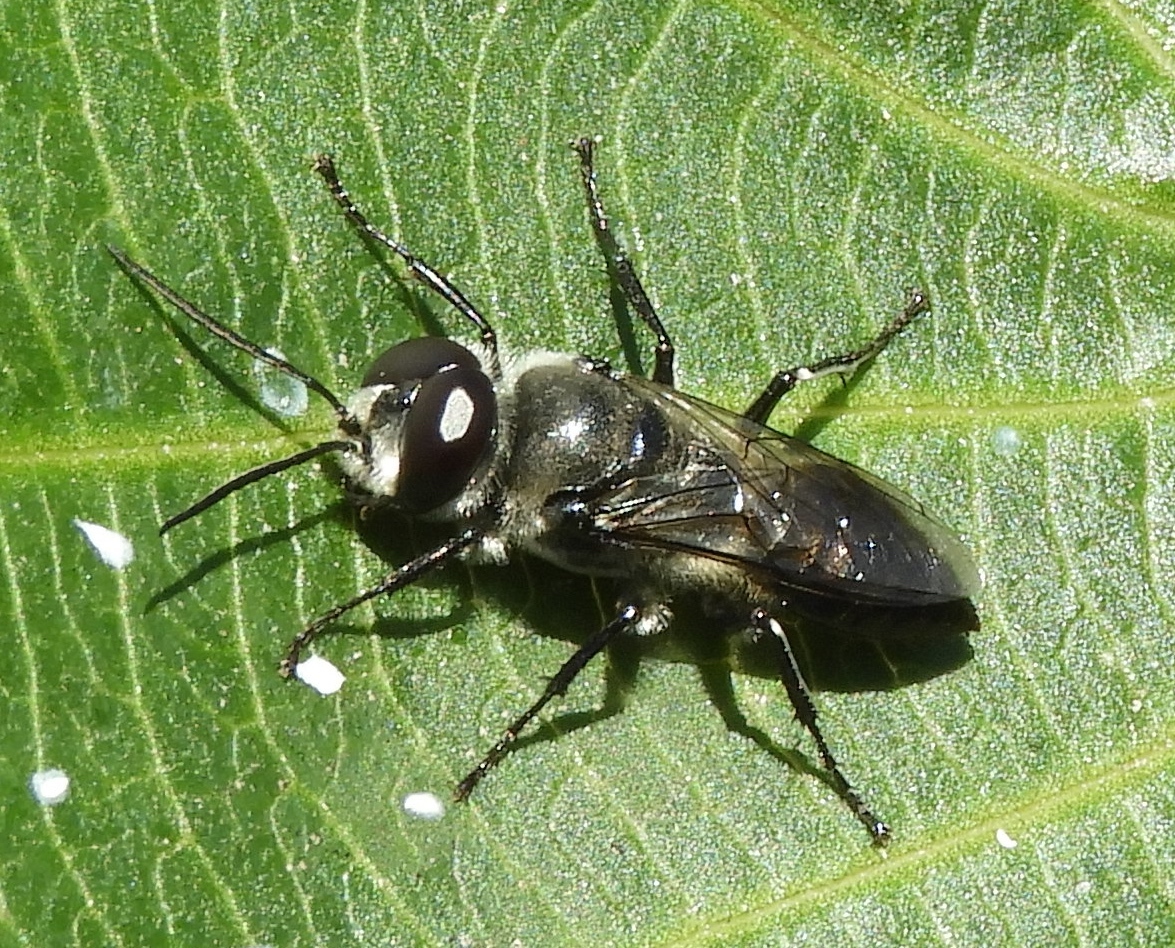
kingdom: Animalia
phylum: Arthropoda
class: Insecta
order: Hymenoptera
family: Crabronidae
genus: Astata
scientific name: Astata
